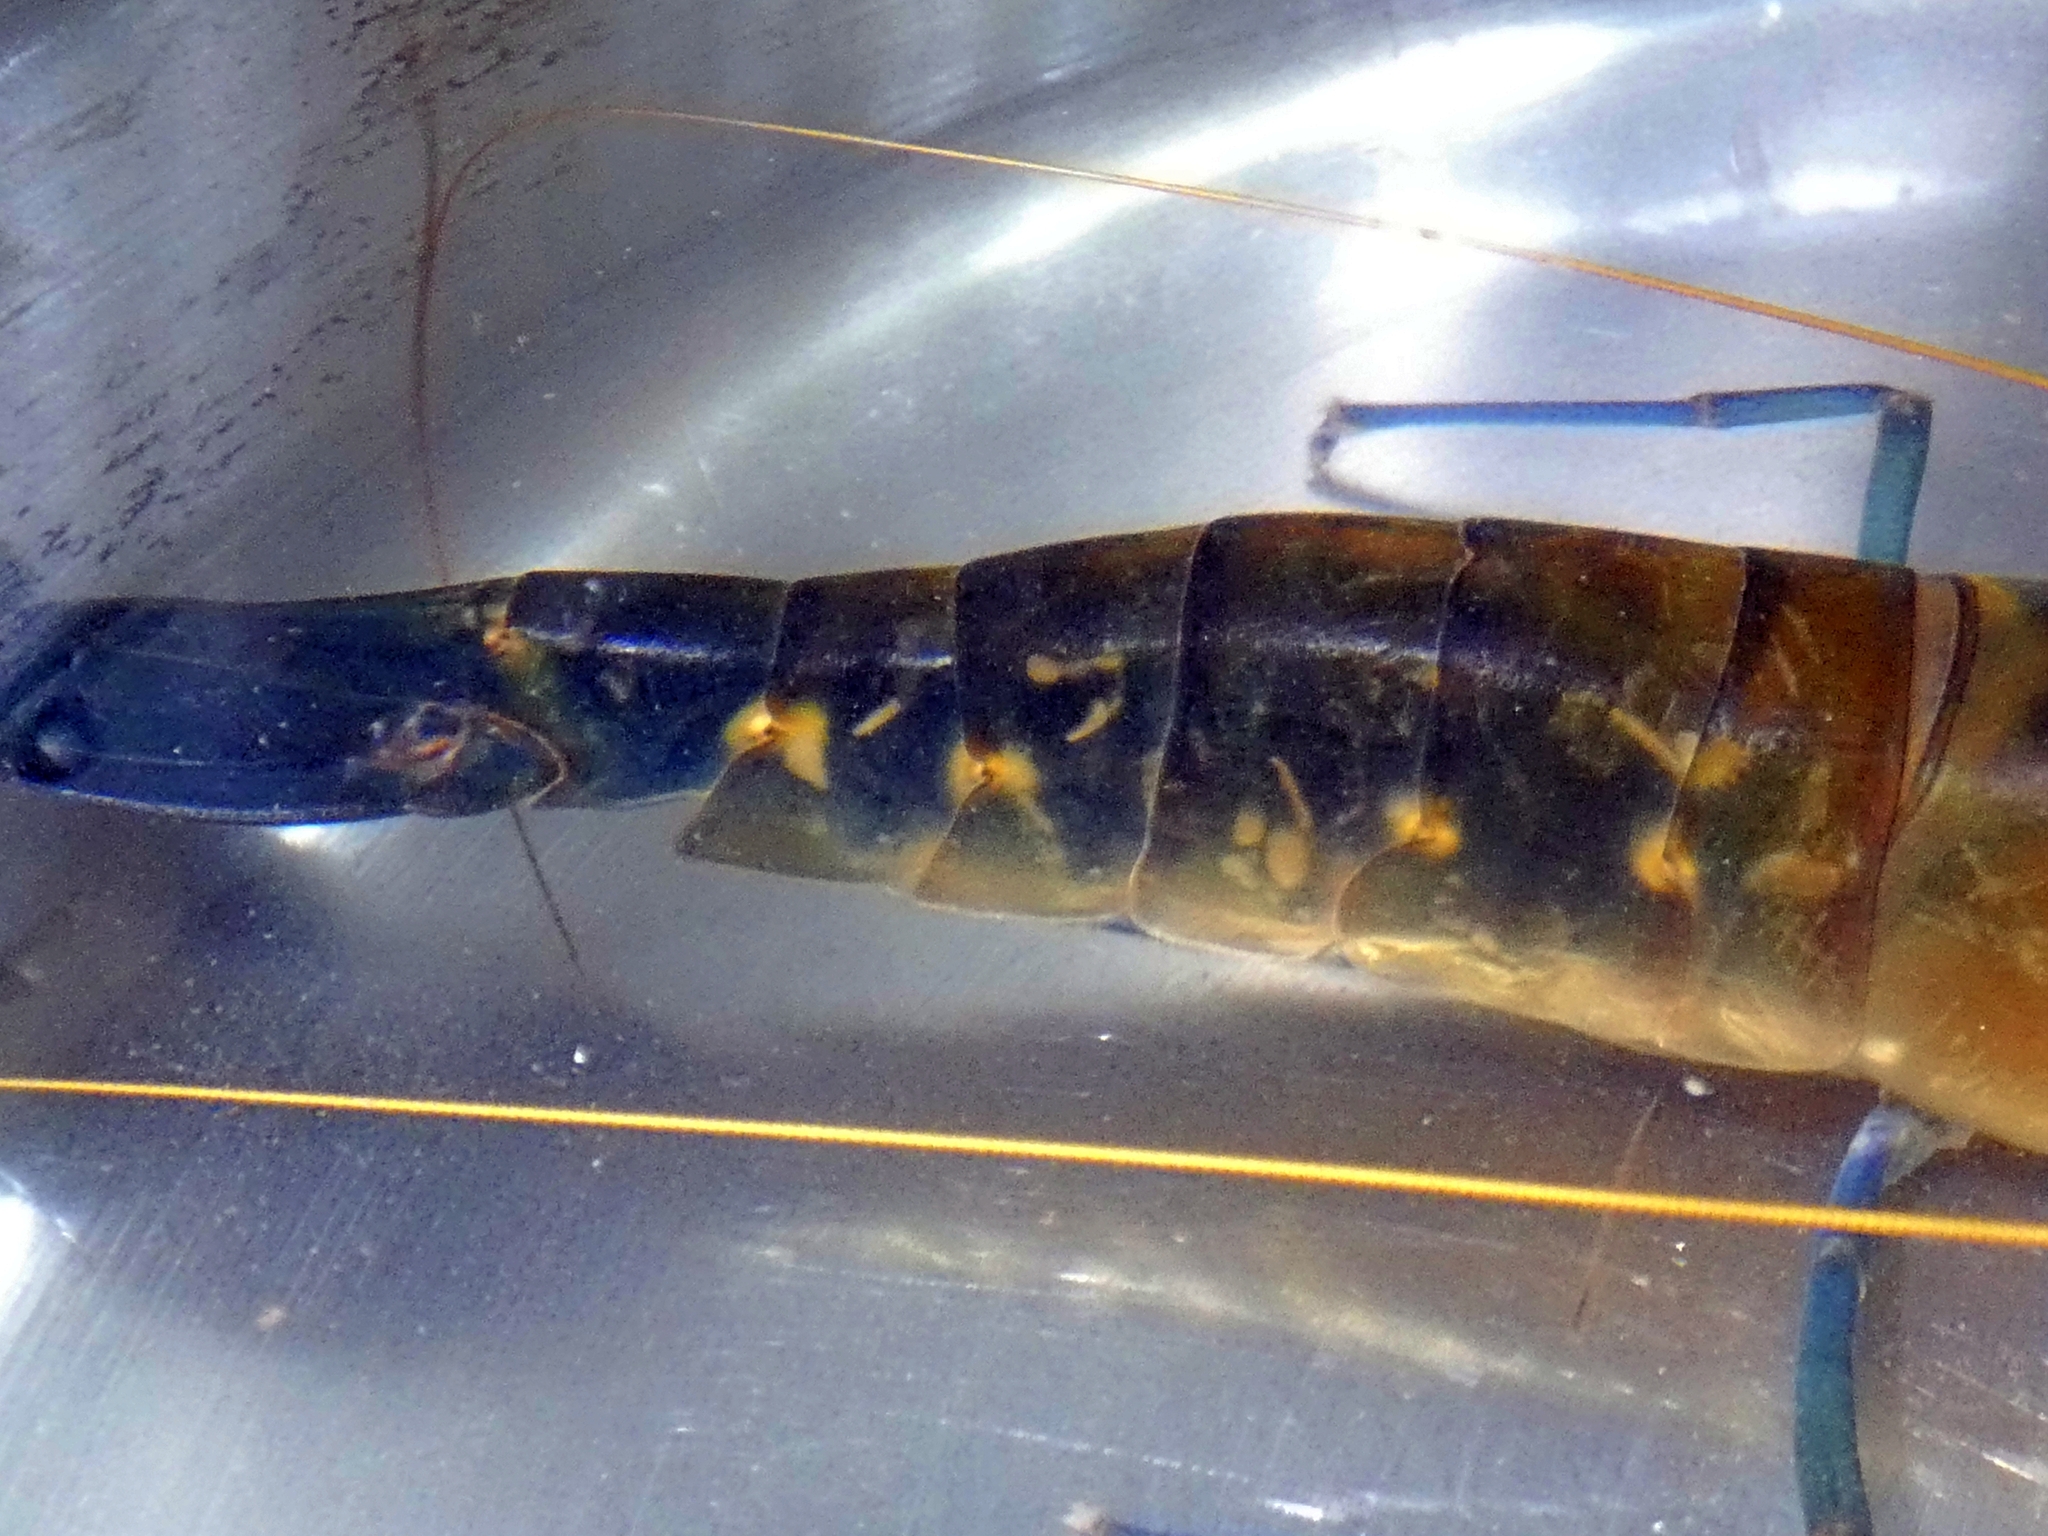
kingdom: Animalia
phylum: Arthropoda
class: Malacostraca
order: Decapoda
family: Palaemonidae
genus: Macrobrachium
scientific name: Macrobrachium lar
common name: Monkey river prawn
